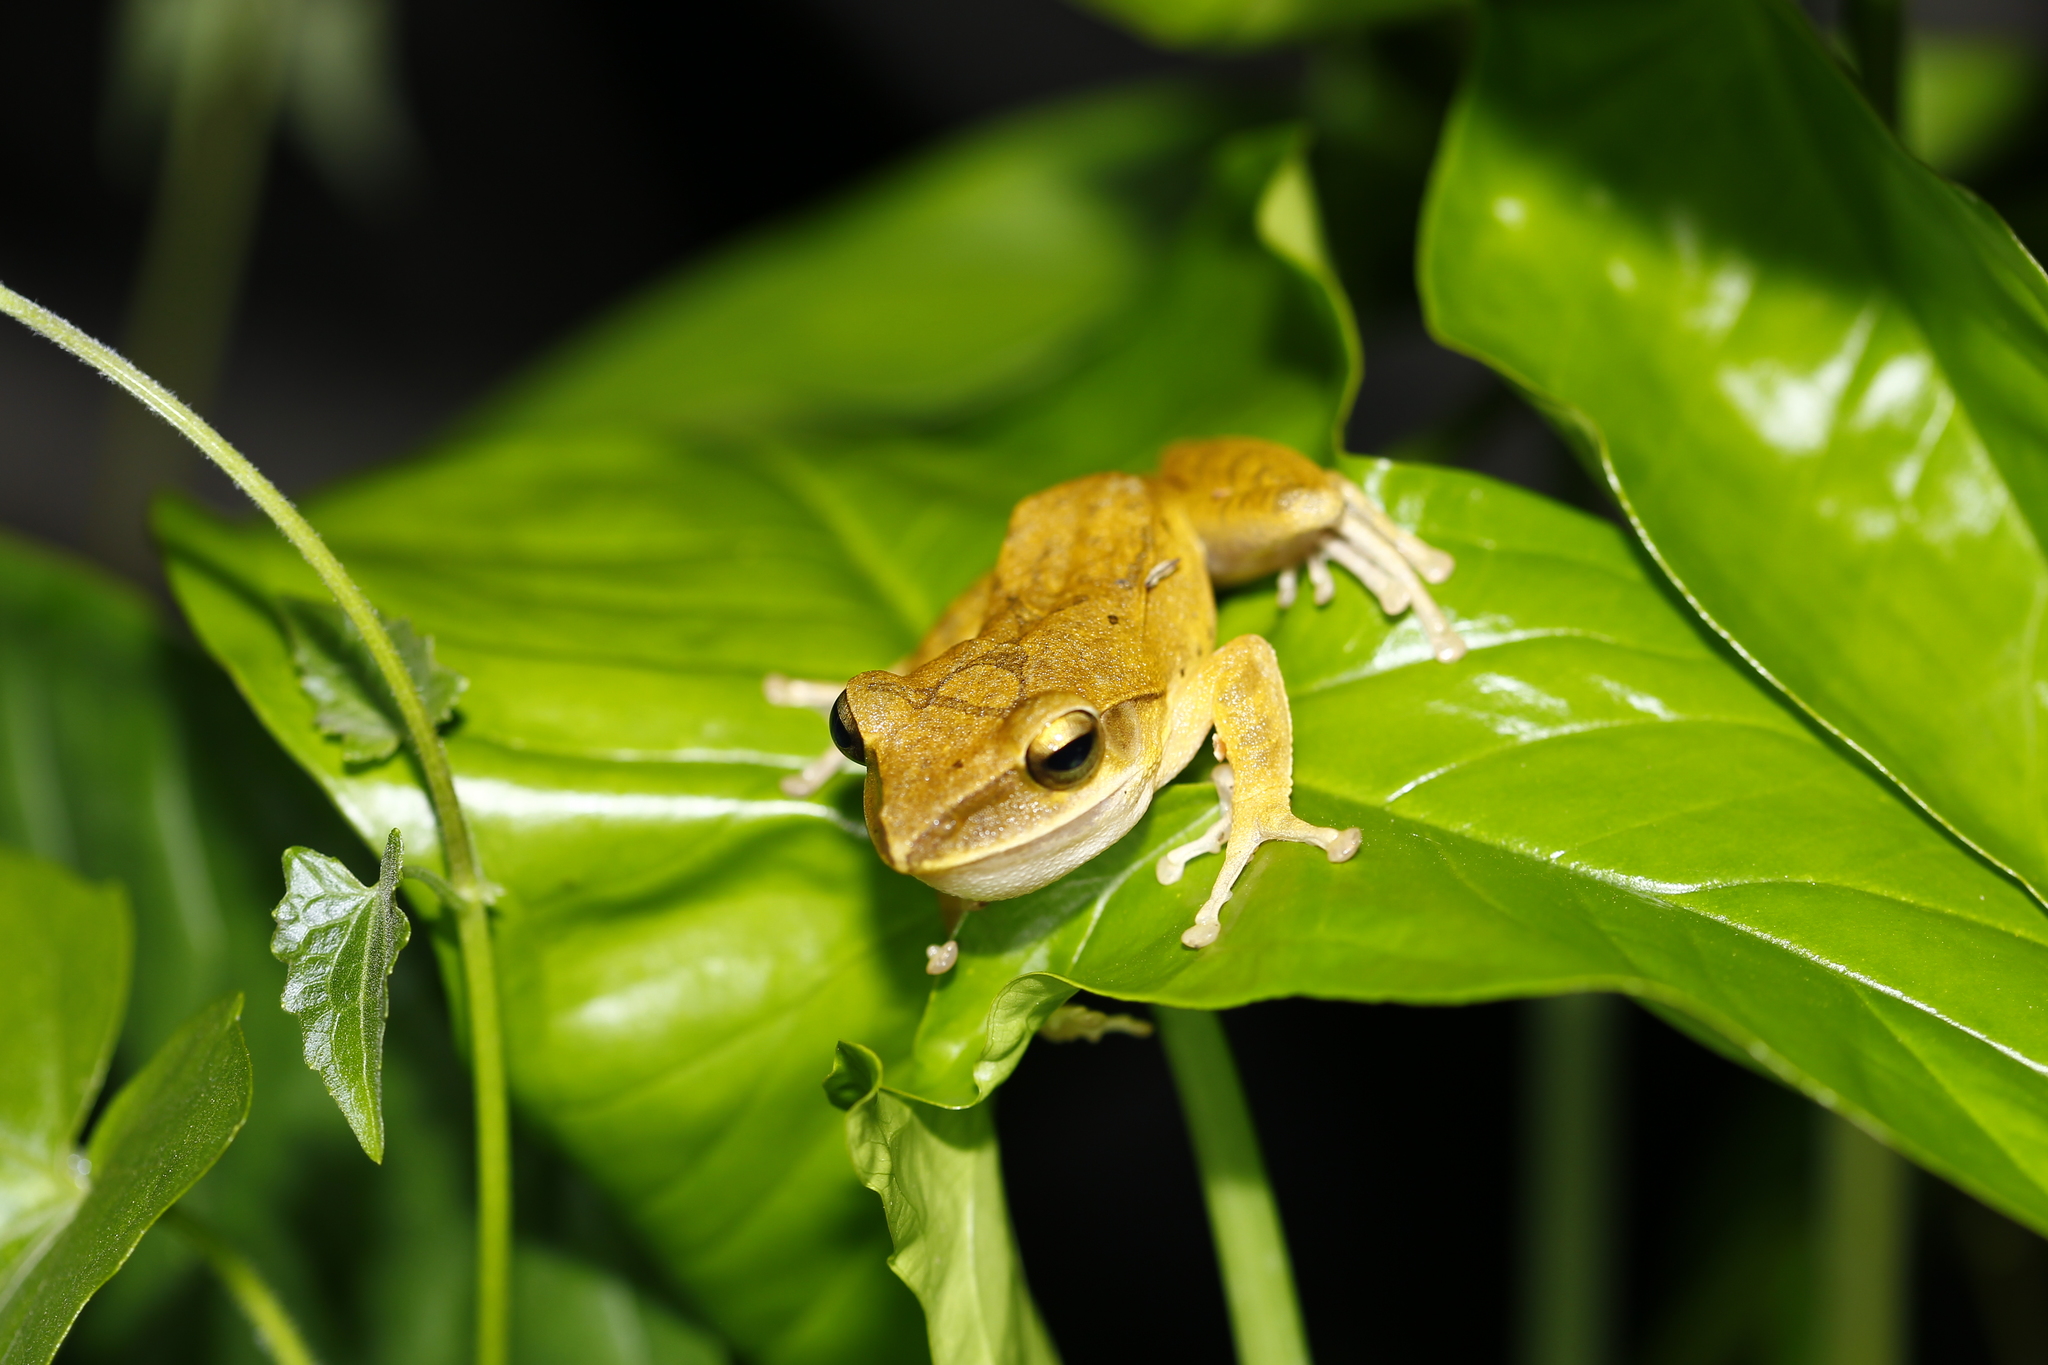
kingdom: Animalia
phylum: Chordata
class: Amphibia
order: Anura
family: Rhacophoridae
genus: Polypedates
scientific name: Polypedates megacephalus
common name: Hong kong whipping frog
